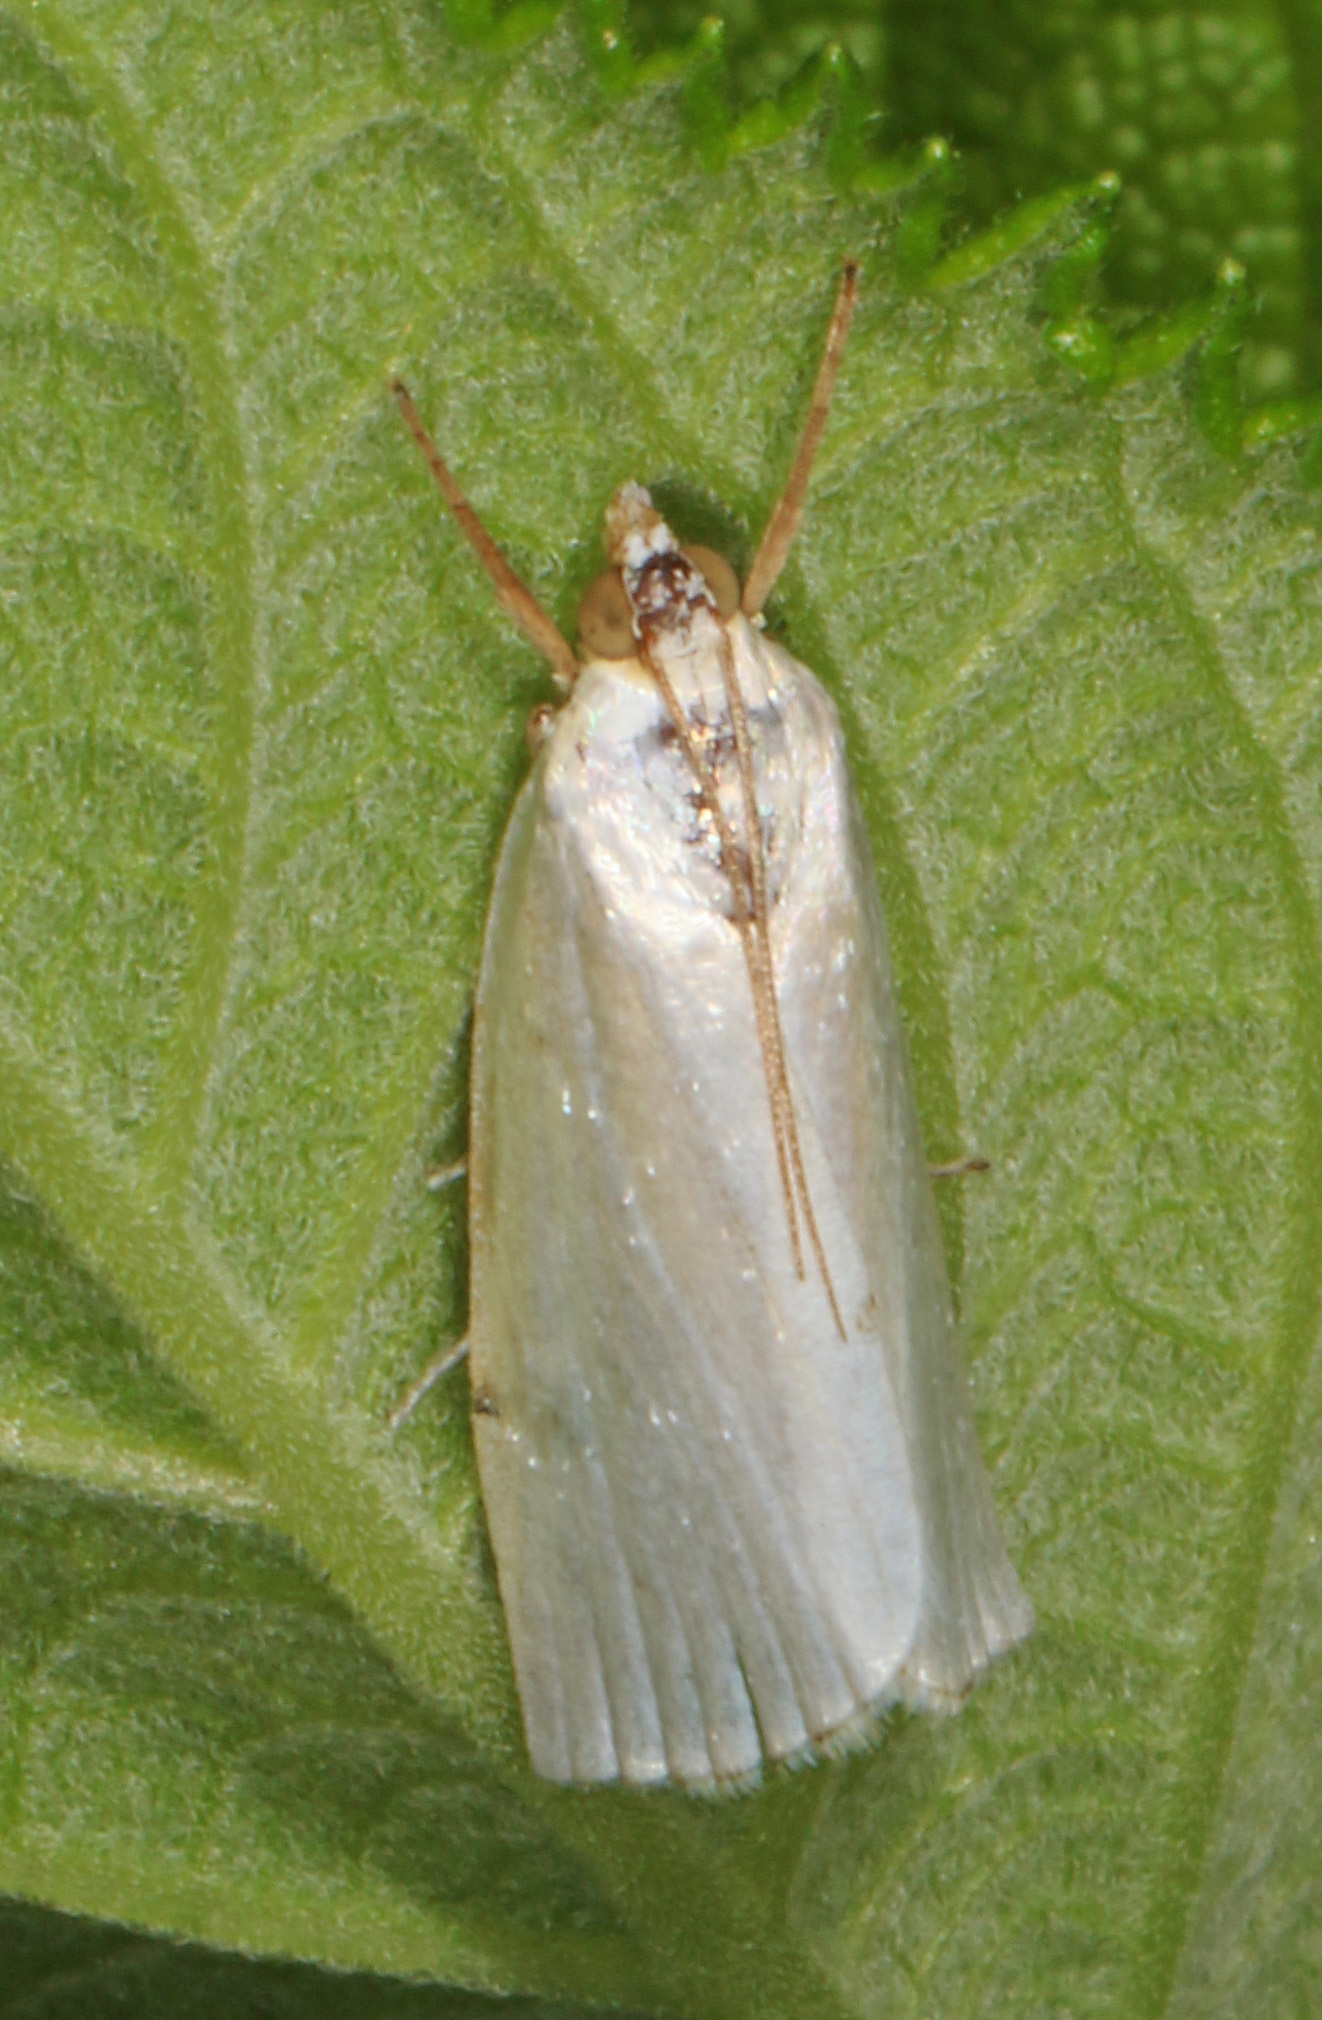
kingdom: Animalia
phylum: Arthropoda
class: Insecta
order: Lepidoptera
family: Crambidae
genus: Argyria
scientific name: Argyria nivalis
